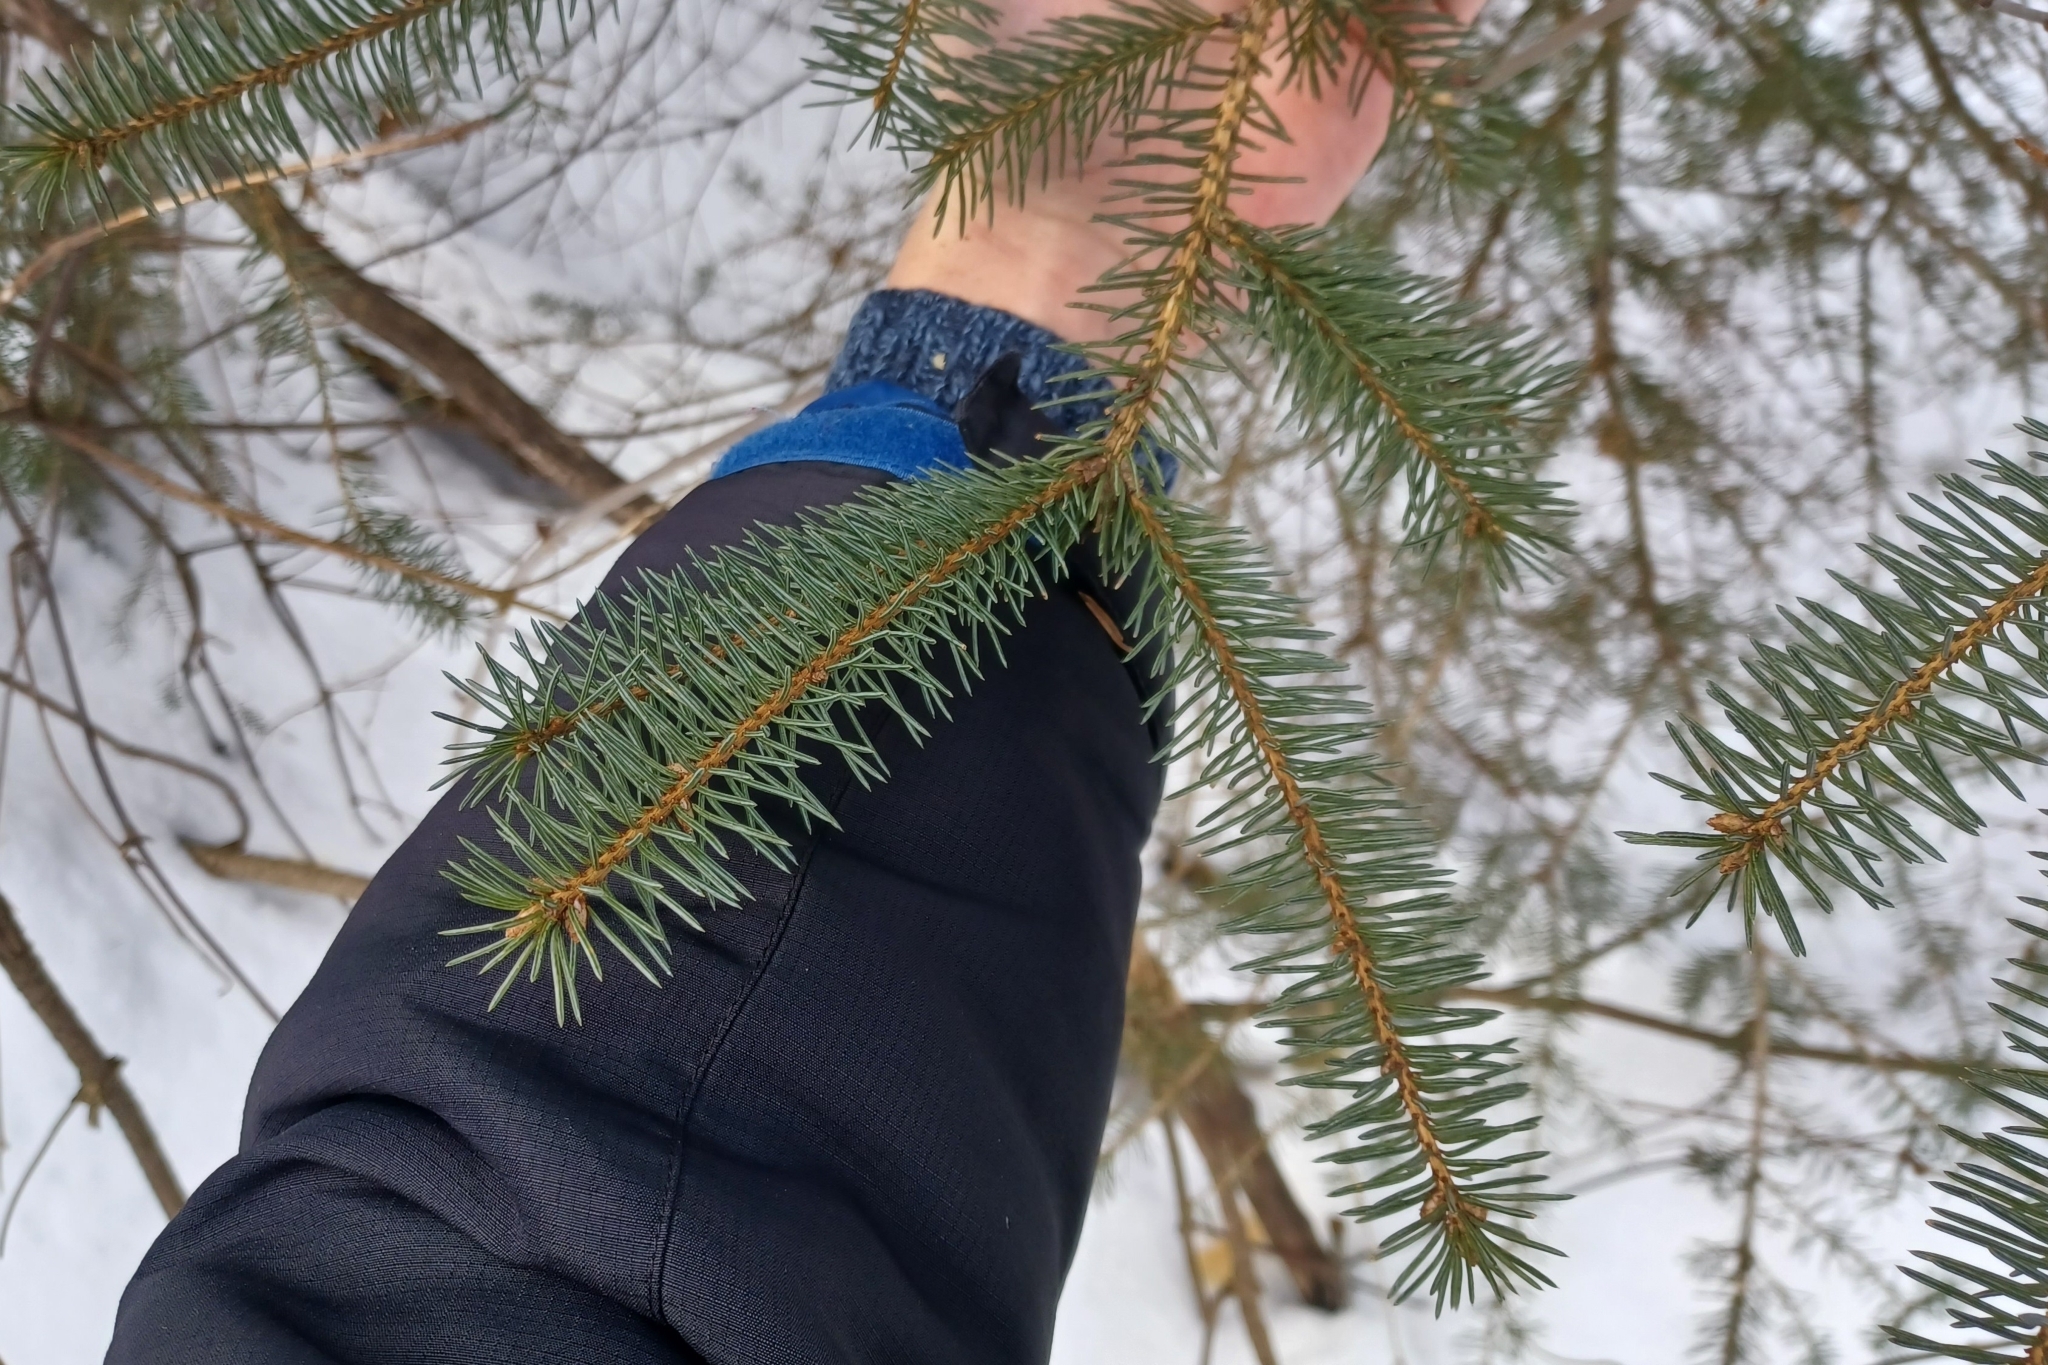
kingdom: Plantae
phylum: Tracheophyta
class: Pinopsida
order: Pinales
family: Pinaceae
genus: Picea
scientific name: Picea glauca
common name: White spruce
